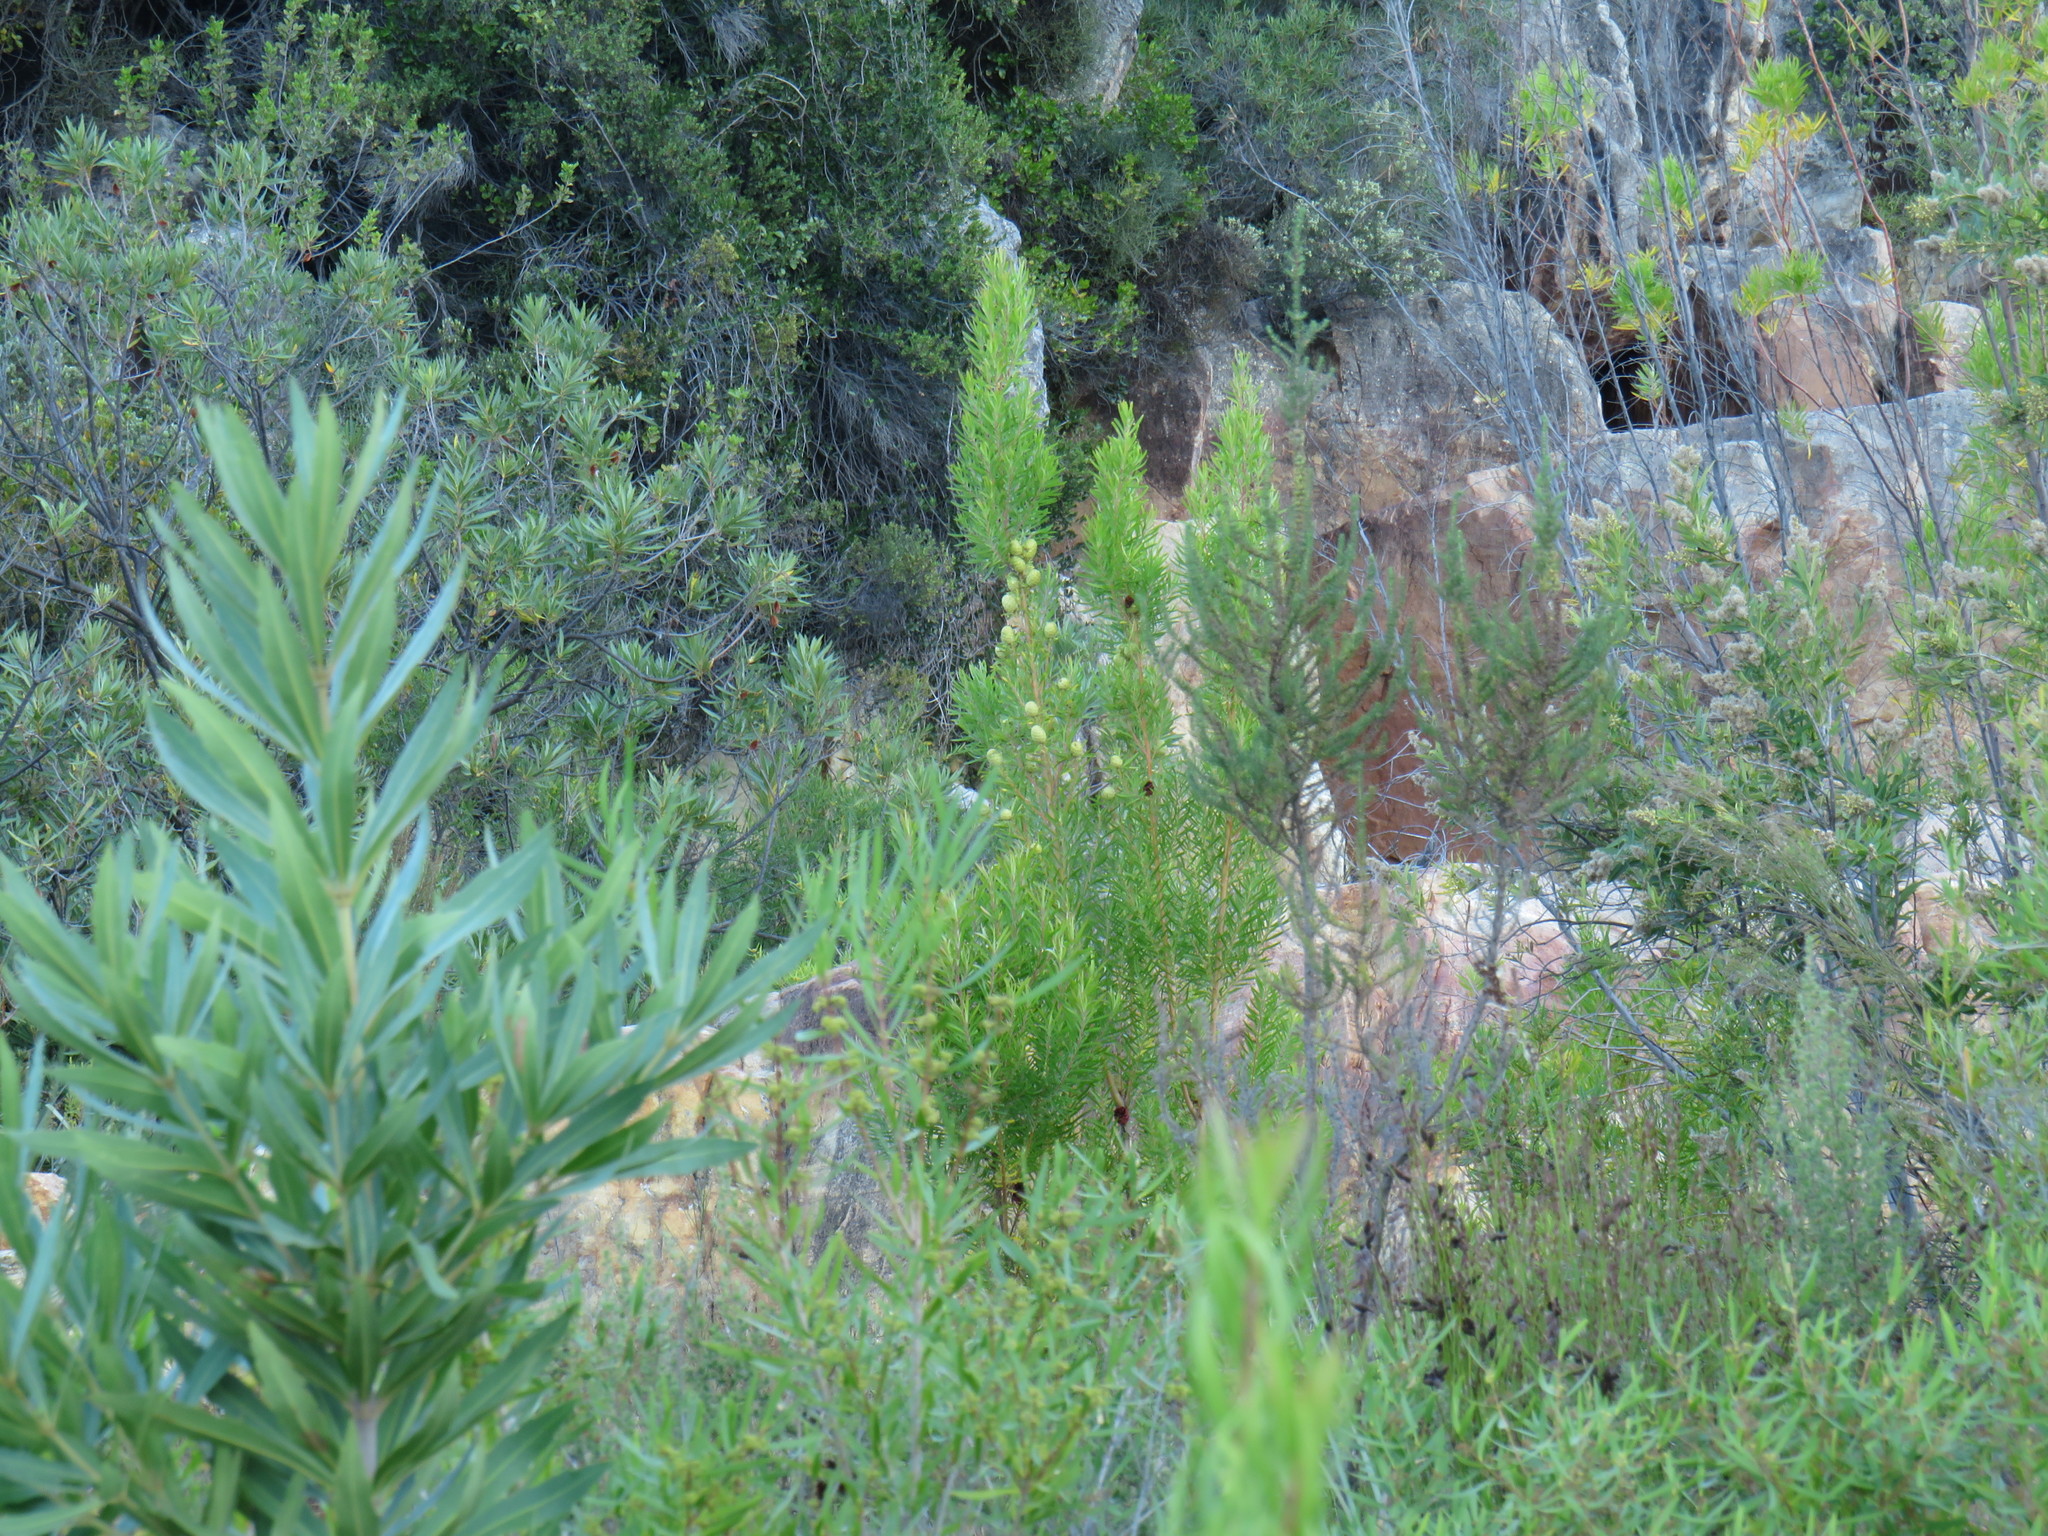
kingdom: Plantae
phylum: Tracheophyta
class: Magnoliopsida
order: Proteales
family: Proteaceae
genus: Leucadendron
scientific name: Leucadendron salicifolium
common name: Common stream conebush
